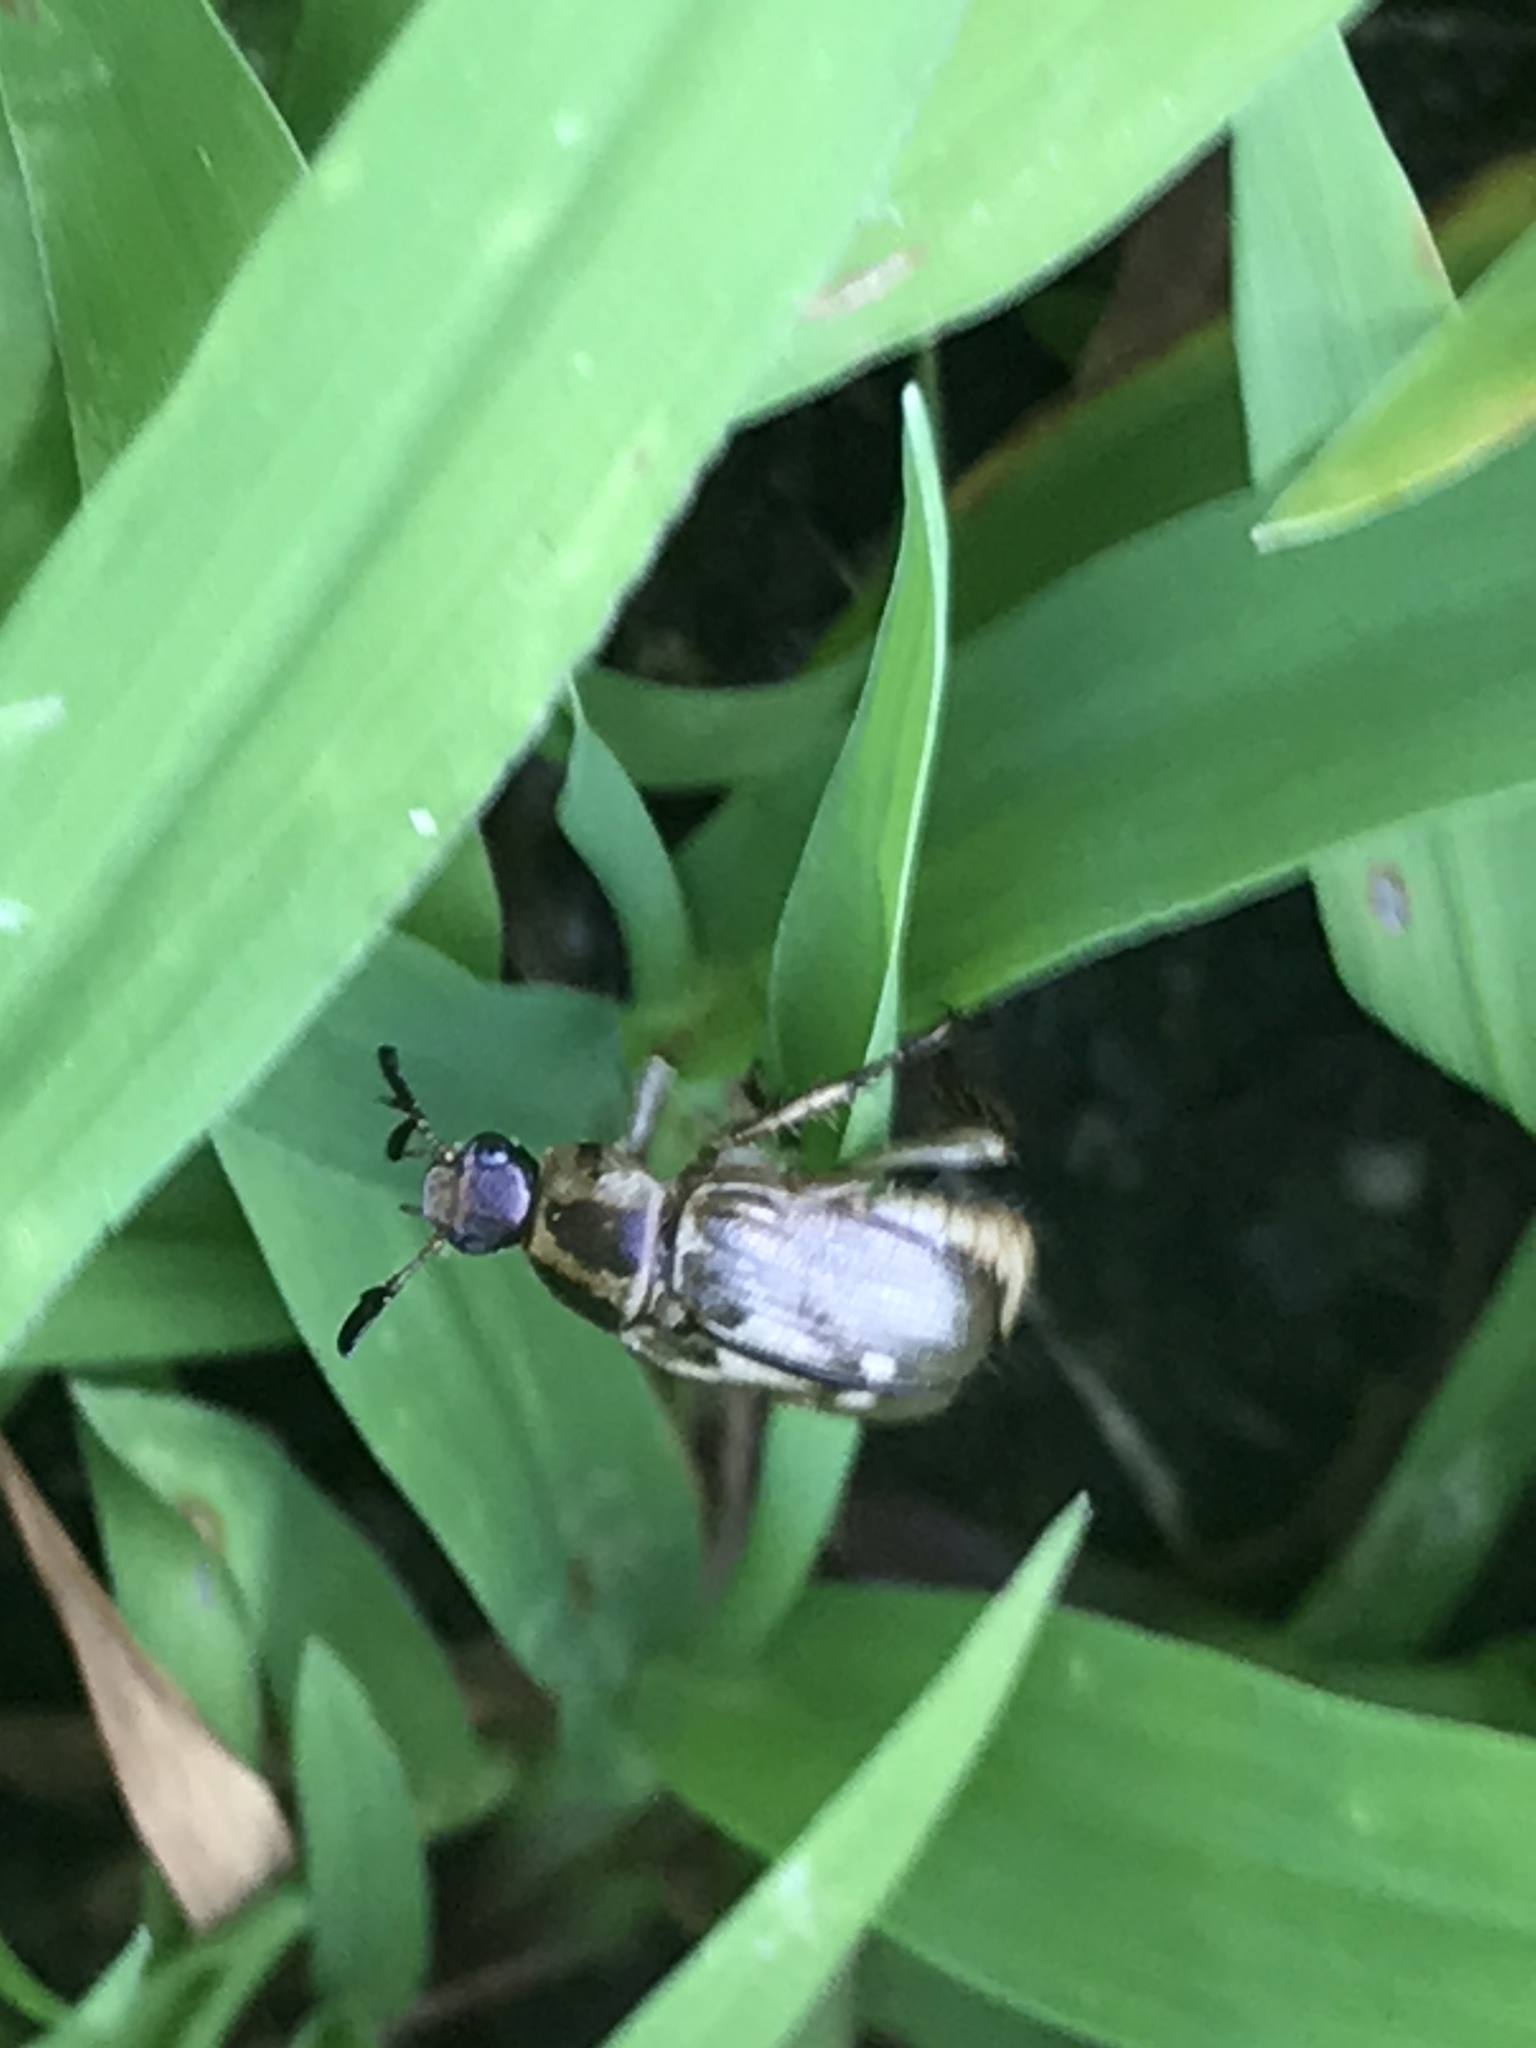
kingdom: Animalia
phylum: Arthropoda
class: Insecta
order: Coleoptera
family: Scarabaeidae
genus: Exomala
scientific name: Exomala orientalis
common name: Oriental beetle
